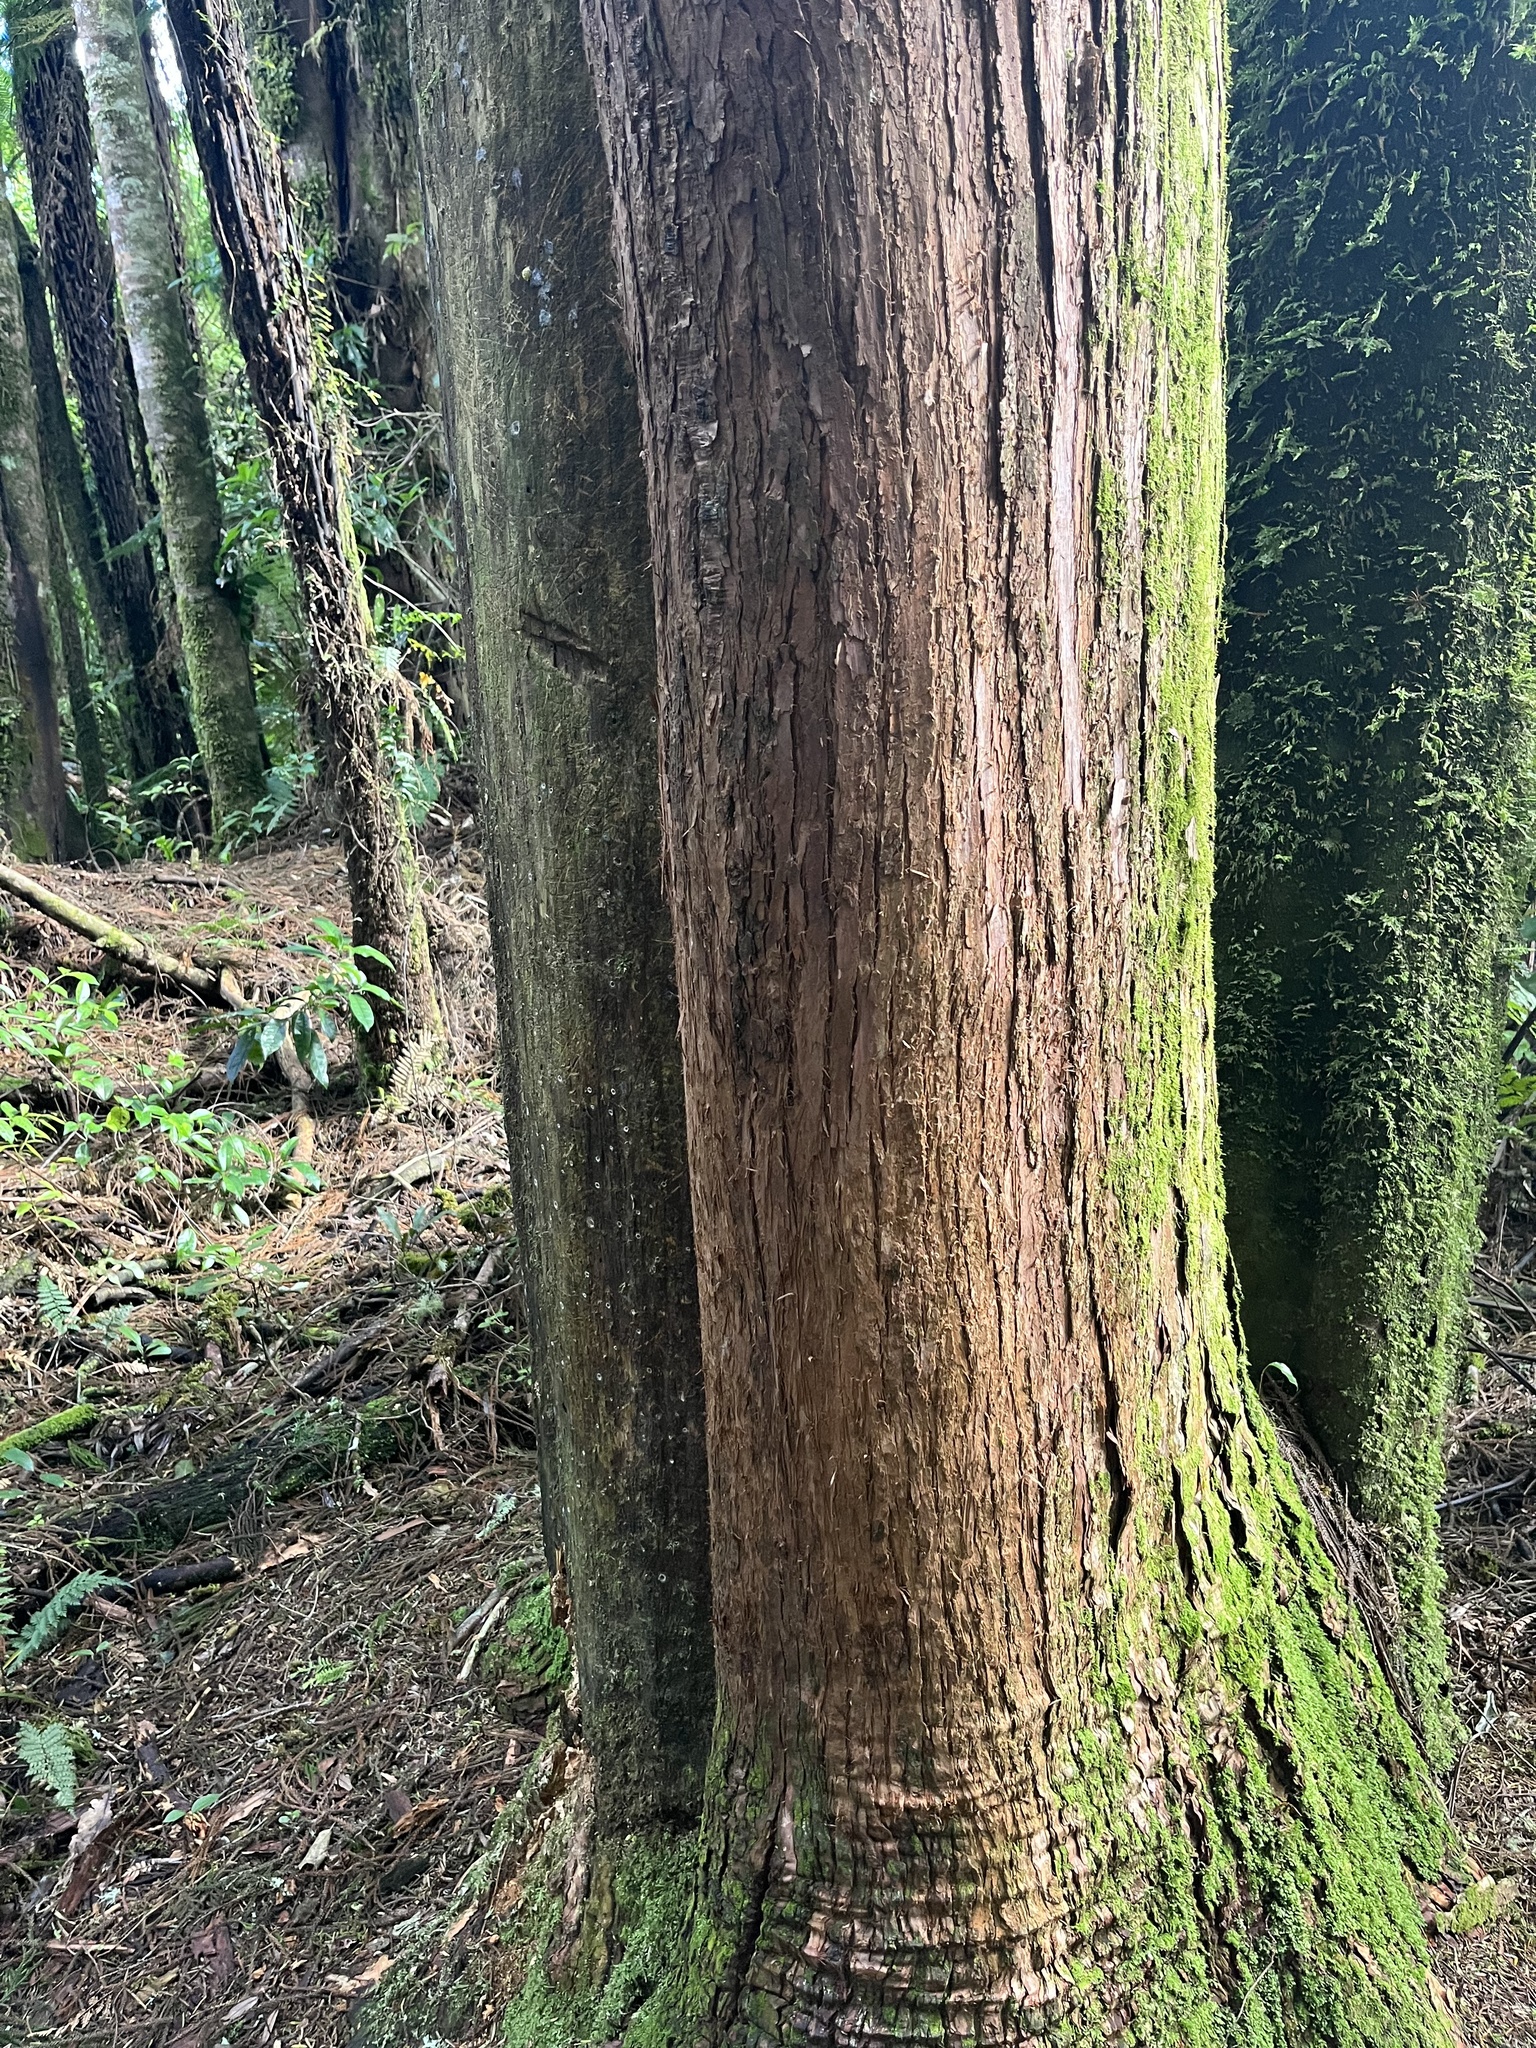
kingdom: Animalia
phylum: Chordata
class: Mammalia
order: Diprotodontia
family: Phalangeridae
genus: Trichosurus
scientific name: Trichosurus vulpecula
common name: Common brushtail
